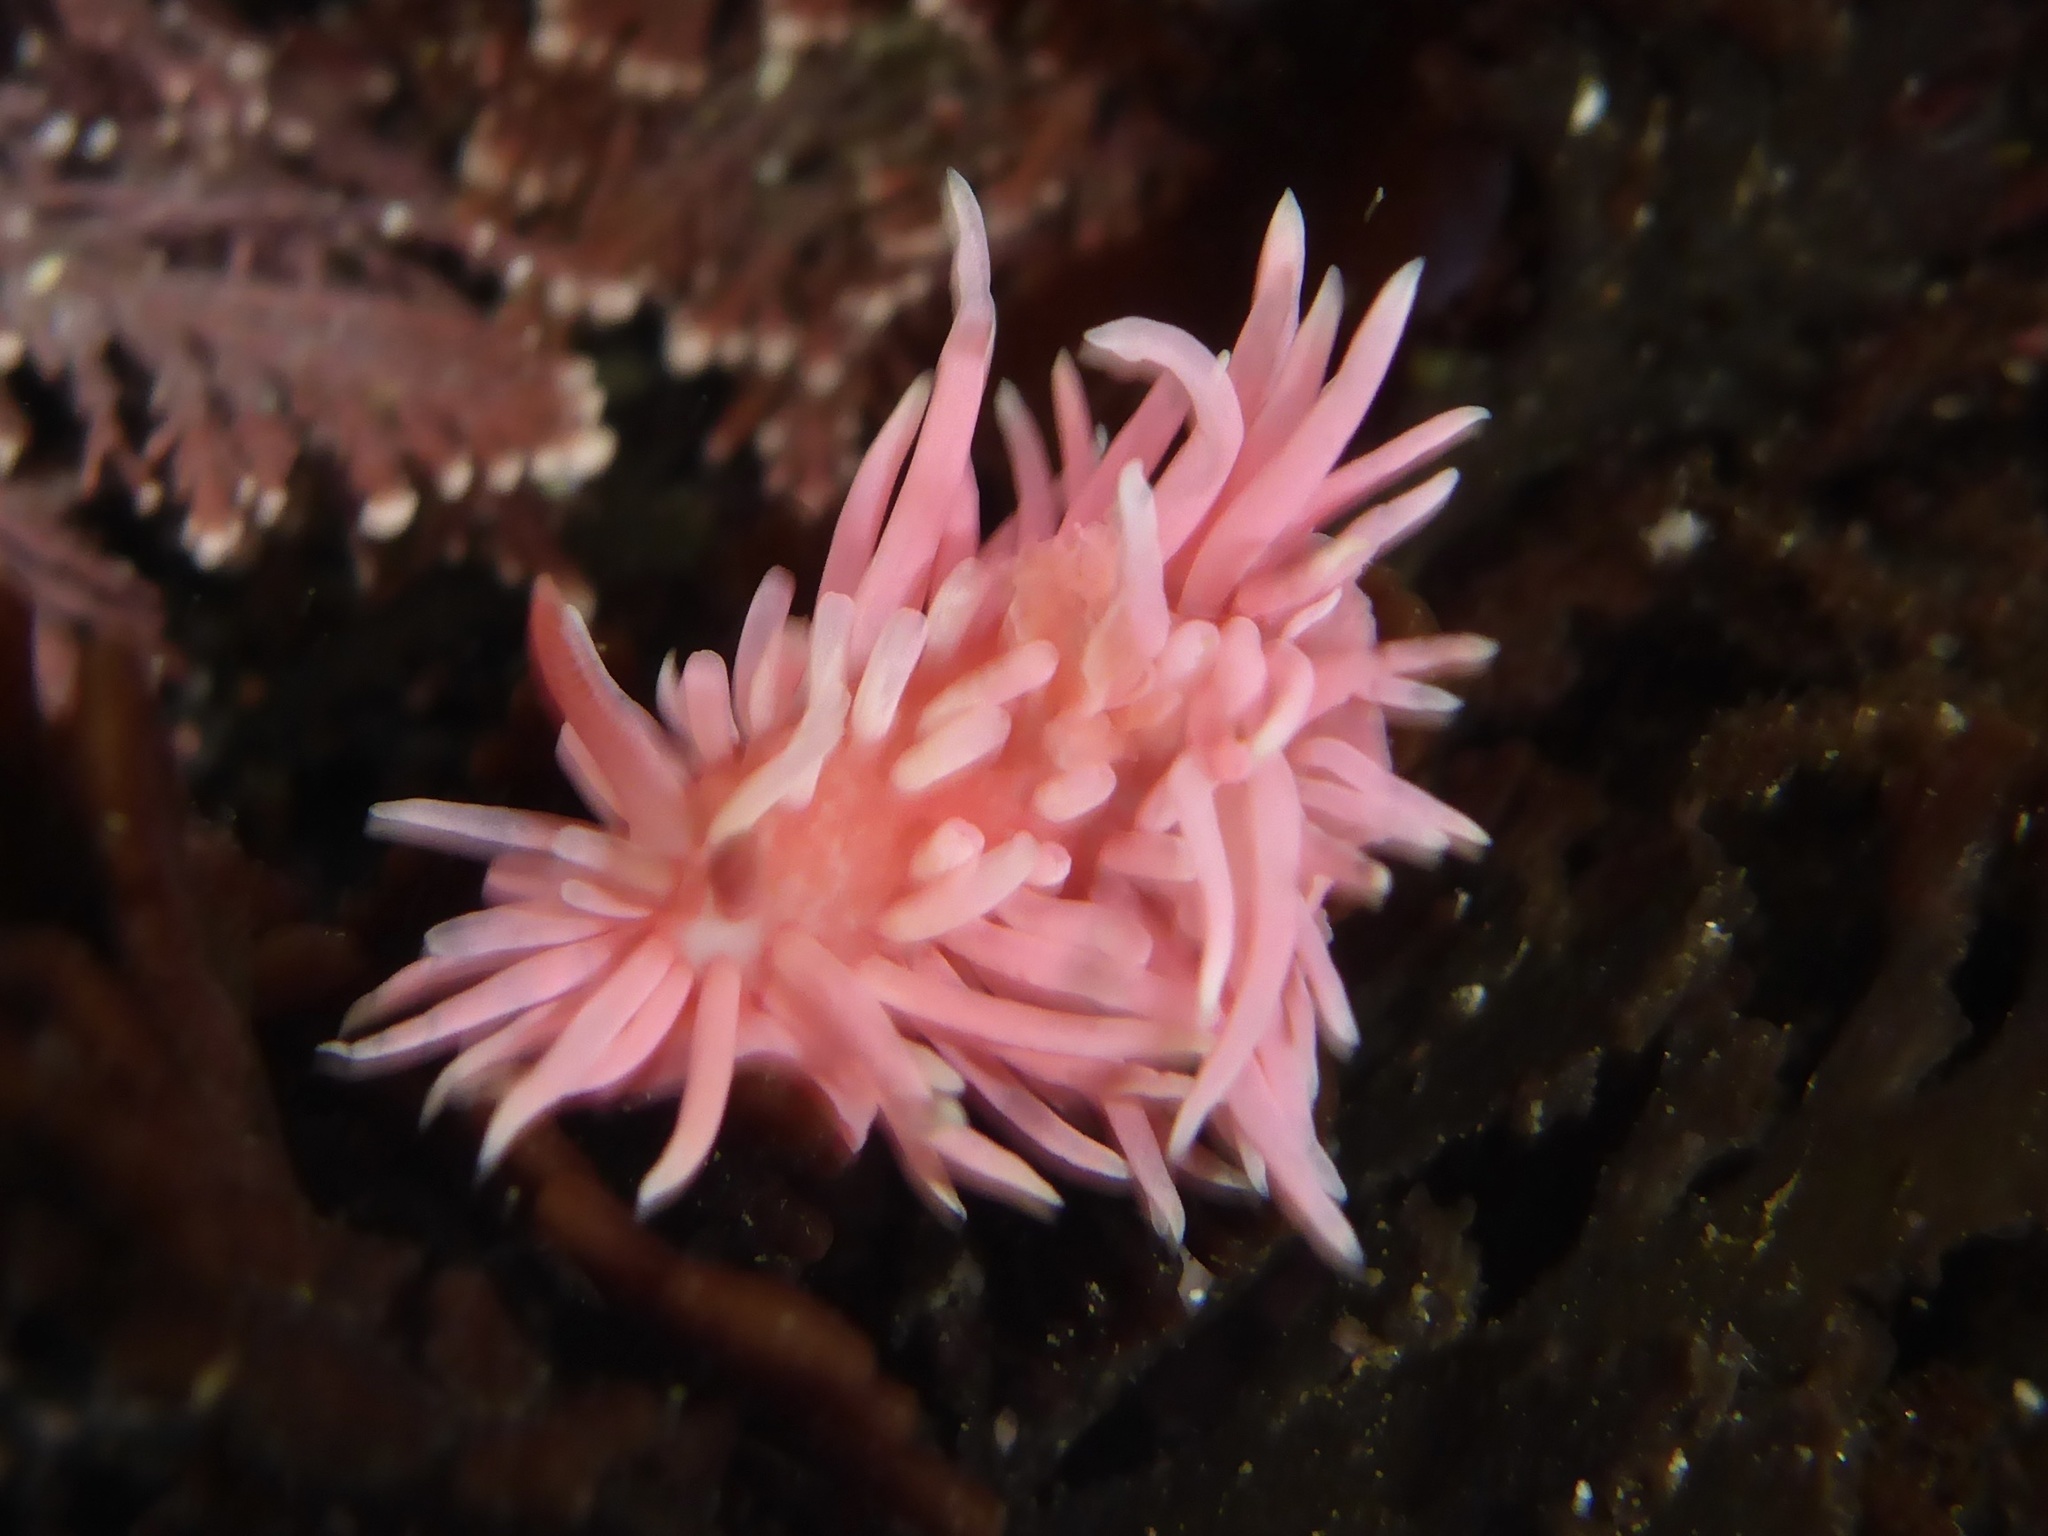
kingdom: Animalia
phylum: Mollusca
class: Gastropoda
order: Nudibranchia
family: Goniodorididae
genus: Okenia
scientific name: Okenia
